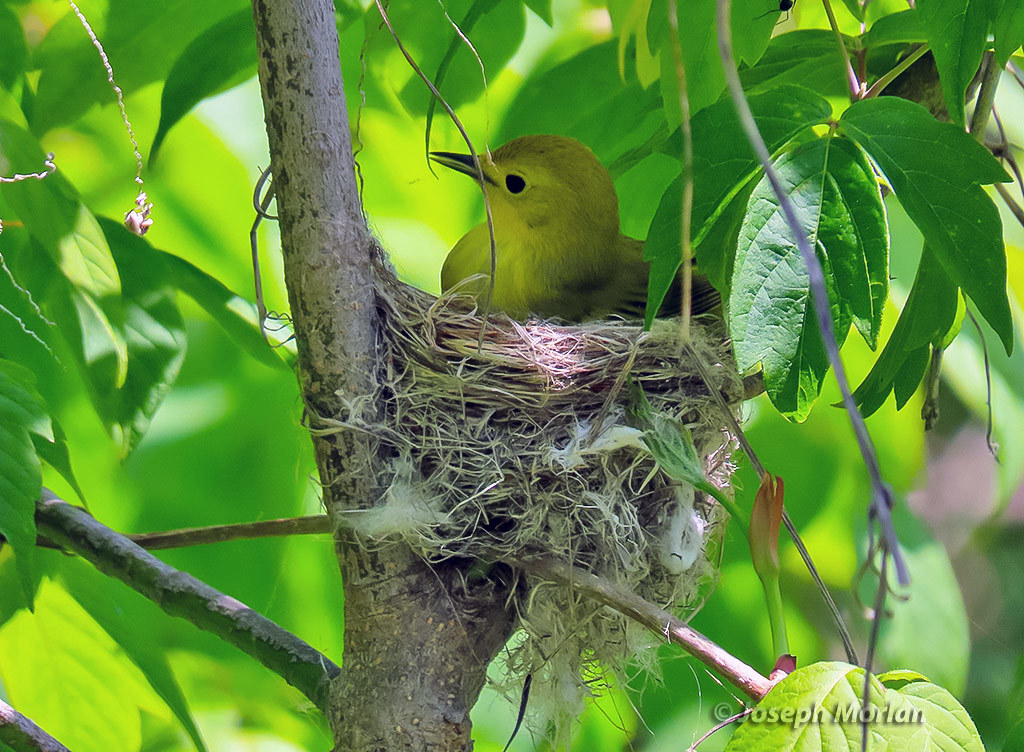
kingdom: Animalia
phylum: Chordata
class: Aves
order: Passeriformes
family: Parulidae
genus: Setophaga
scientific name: Setophaga petechia
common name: Yellow warbler
